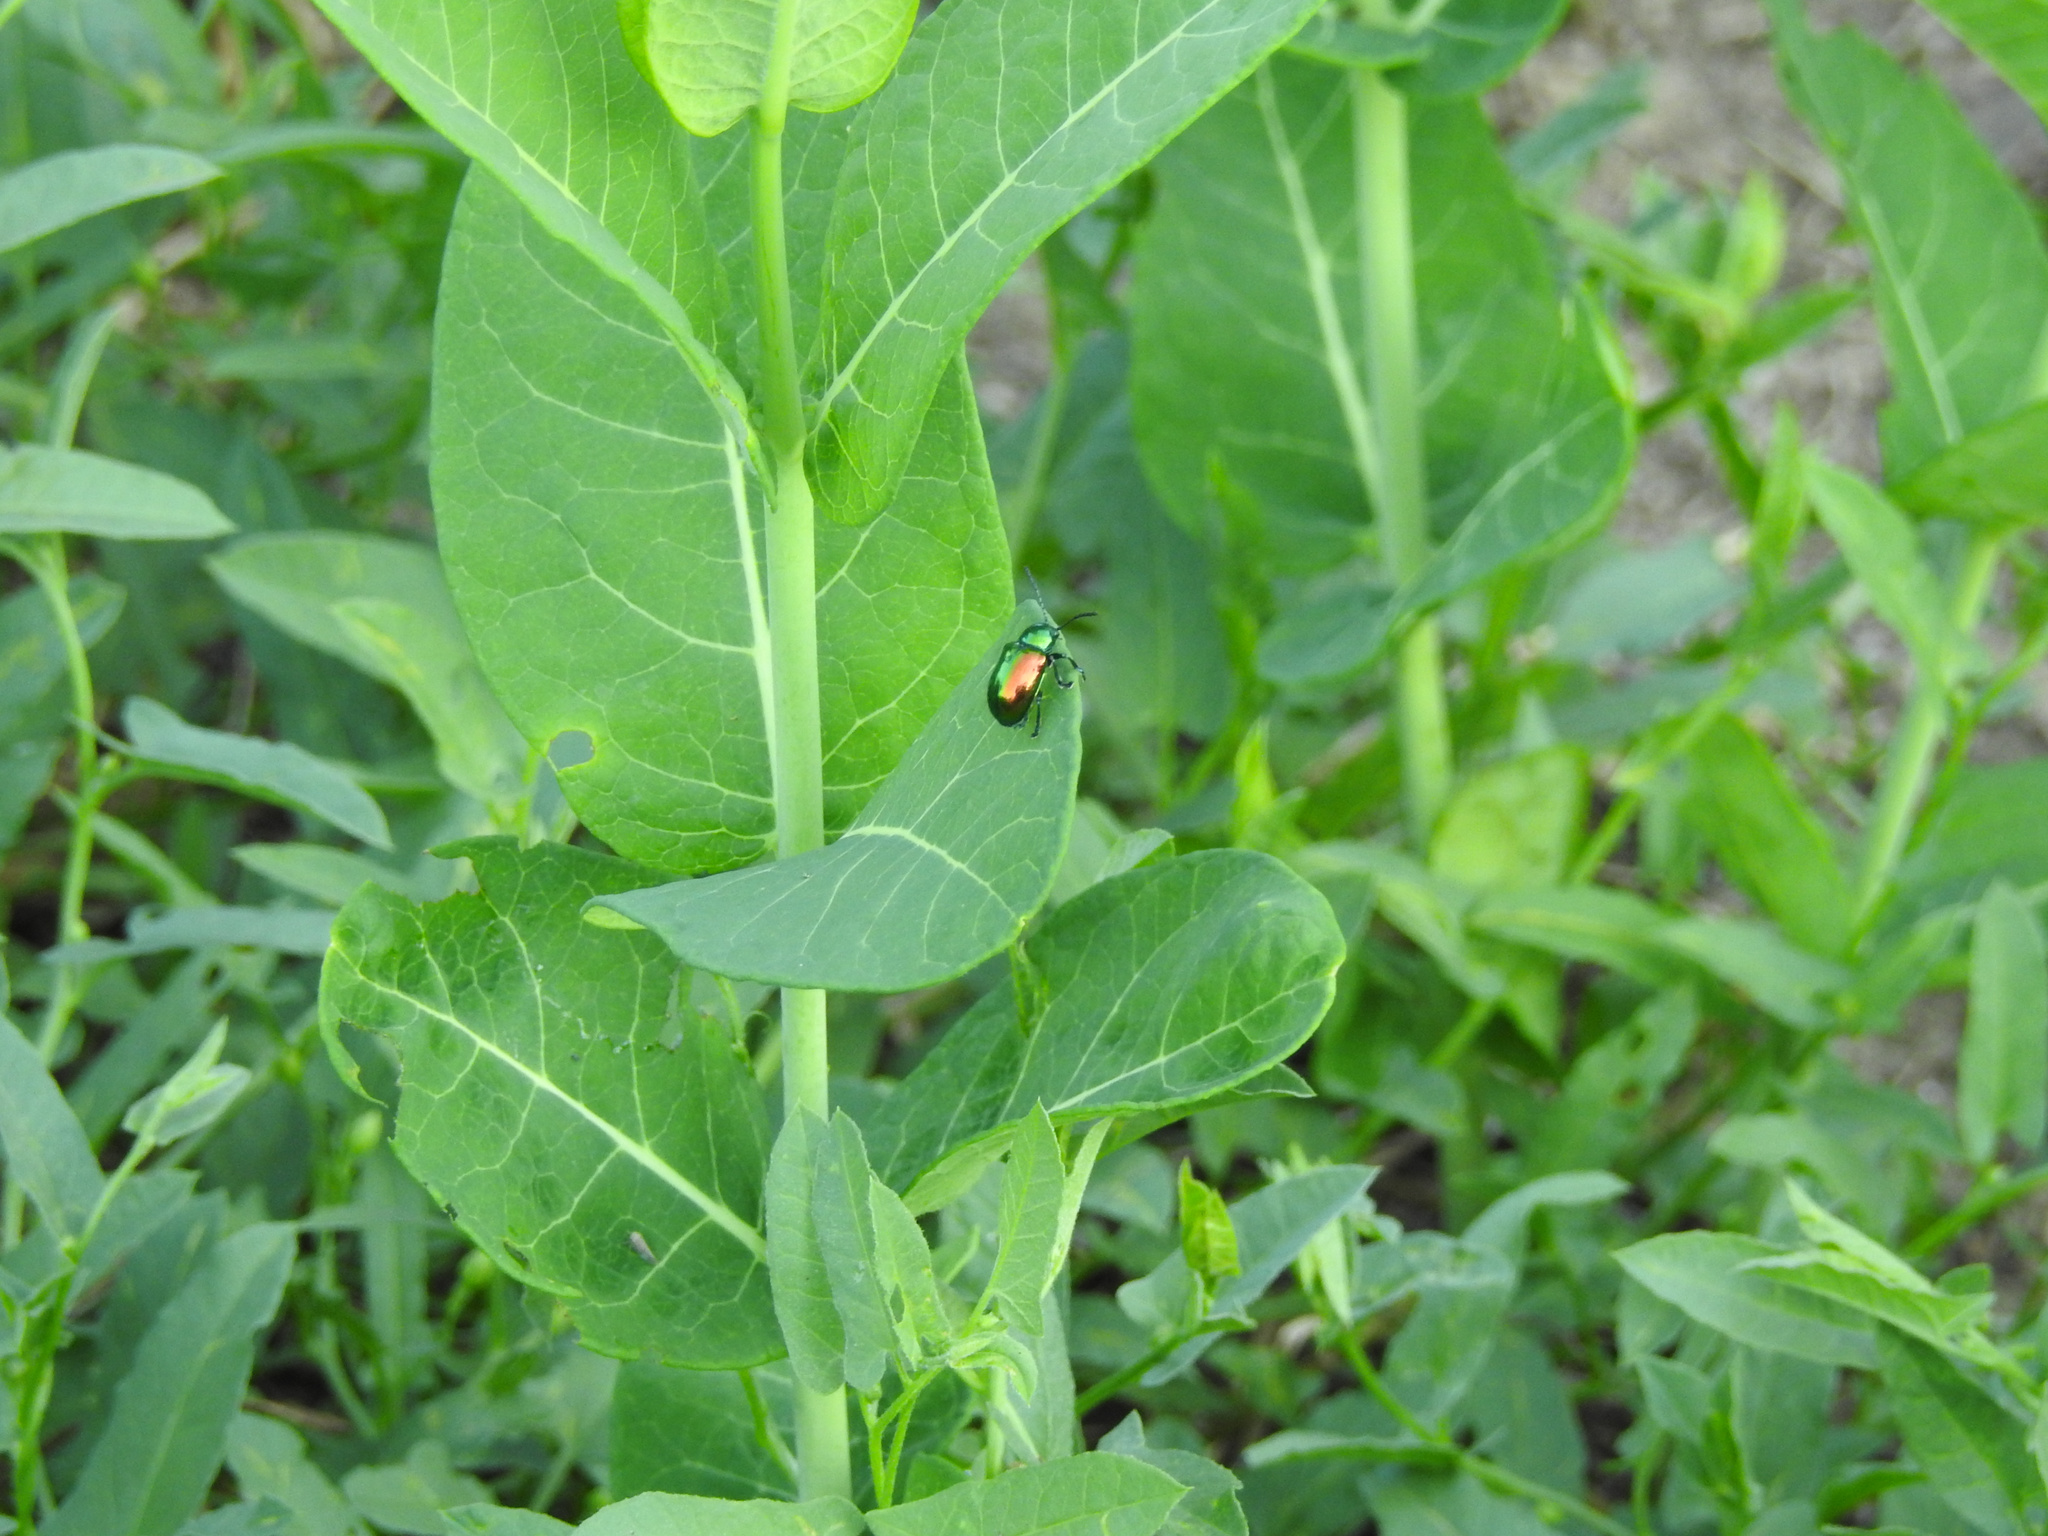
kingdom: Animalia
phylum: Arthropoda
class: Insecta
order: Coleoptera
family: Chrysomelidae
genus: Chrysochus
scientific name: Chrysochus auratus
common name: Dogbane leaf beetle
